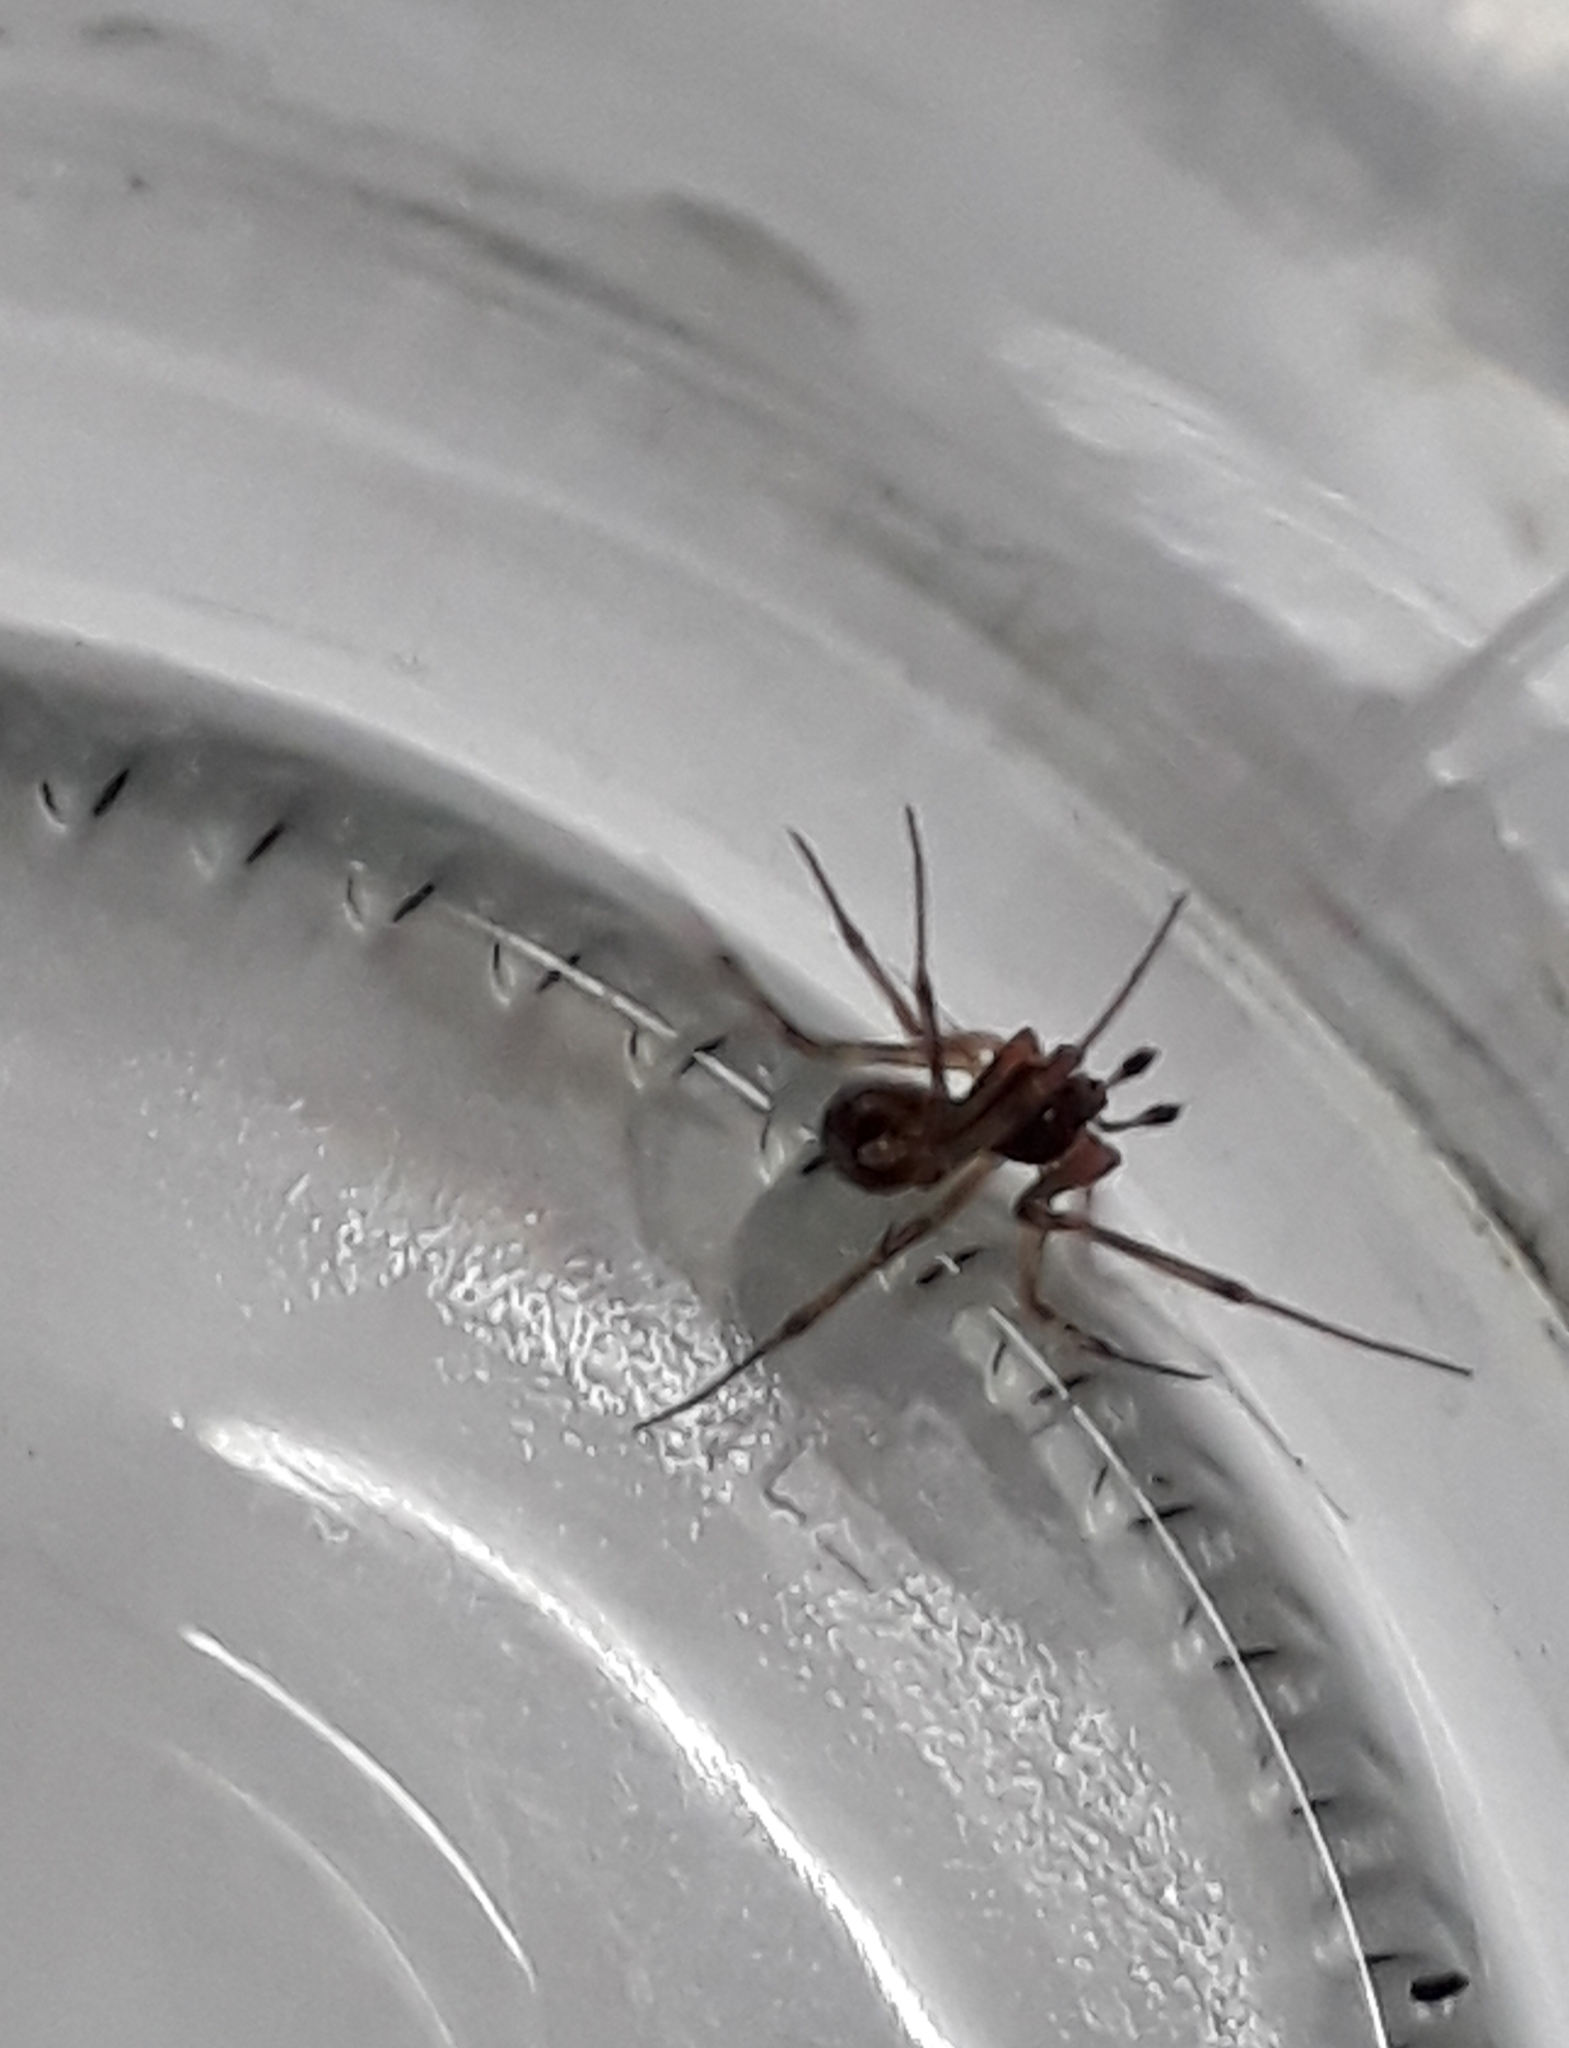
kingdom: Animalia
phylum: Arthropoda
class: Arachnida
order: Araneae
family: Theridiidae
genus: Steatoda
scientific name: Steatoda triangulosa
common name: Triangulate bud spider
